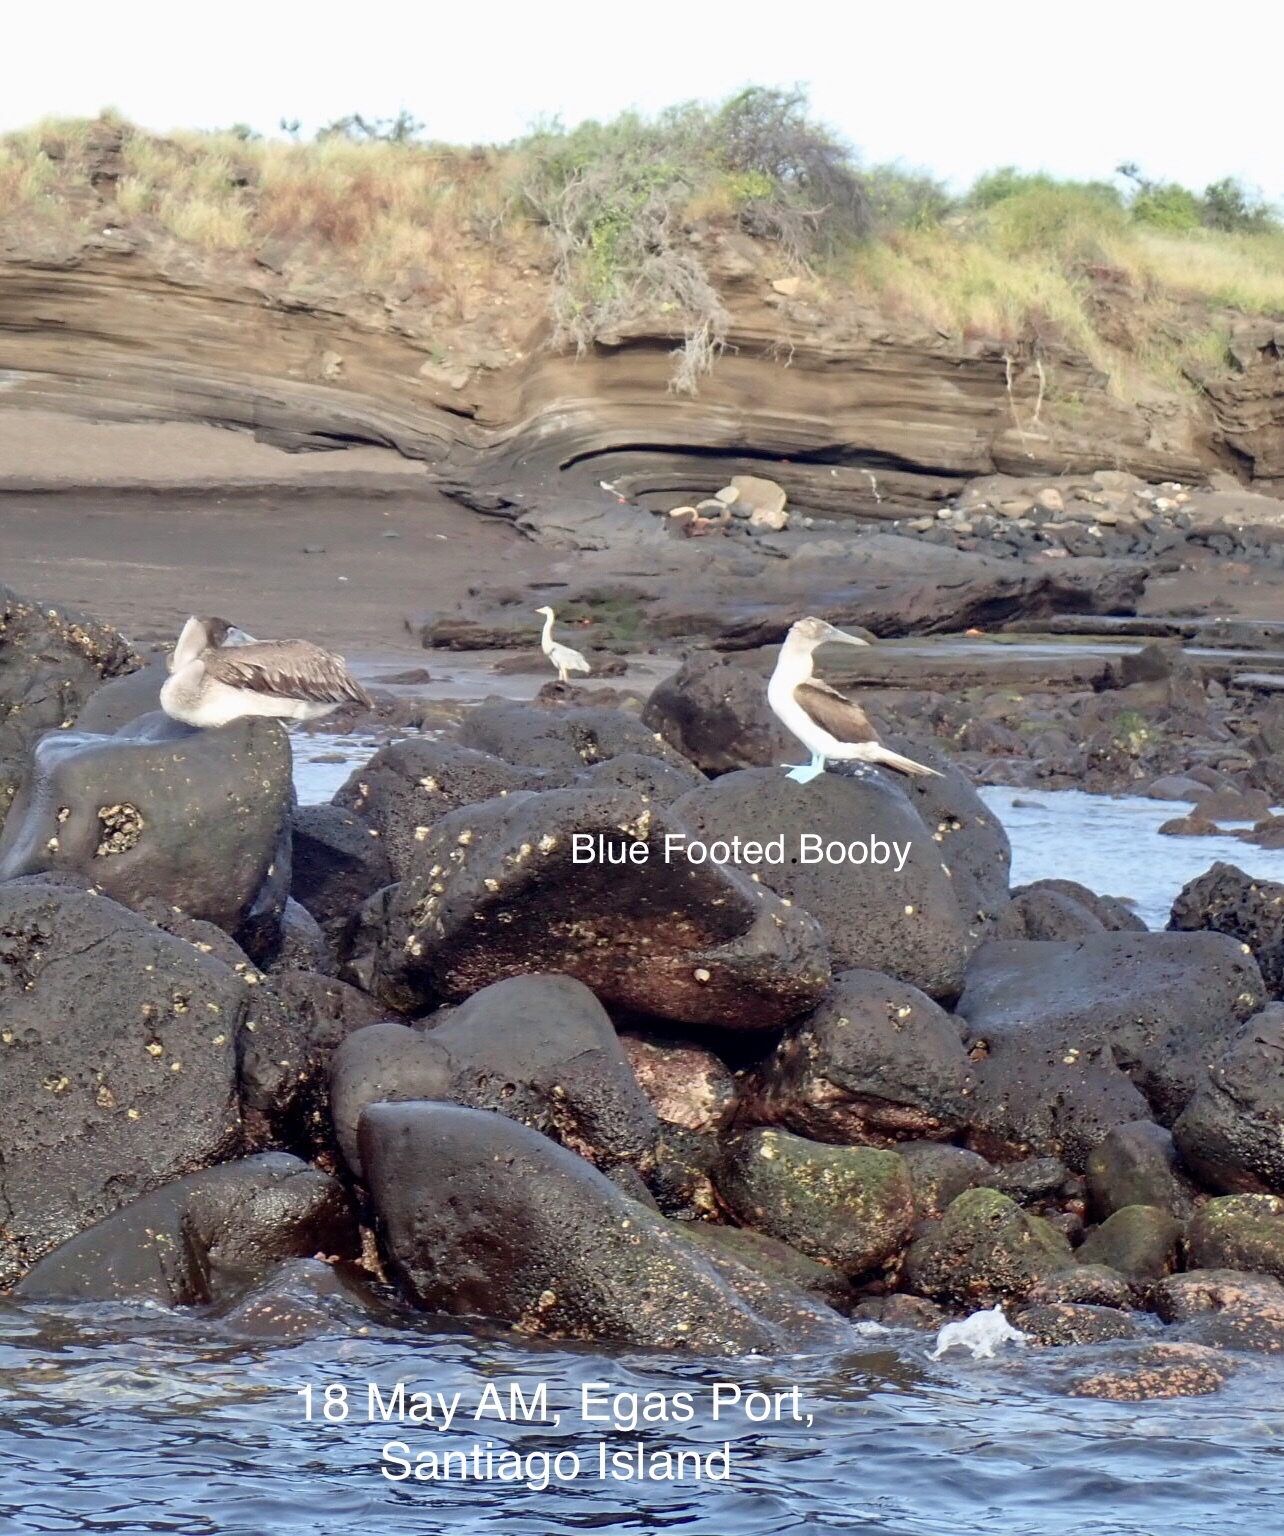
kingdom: Animalia
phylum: Chordata
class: Aves
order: Suliformes
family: Sulidae
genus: Sula
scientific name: Sula nebouxii
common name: Blue-footed booby
